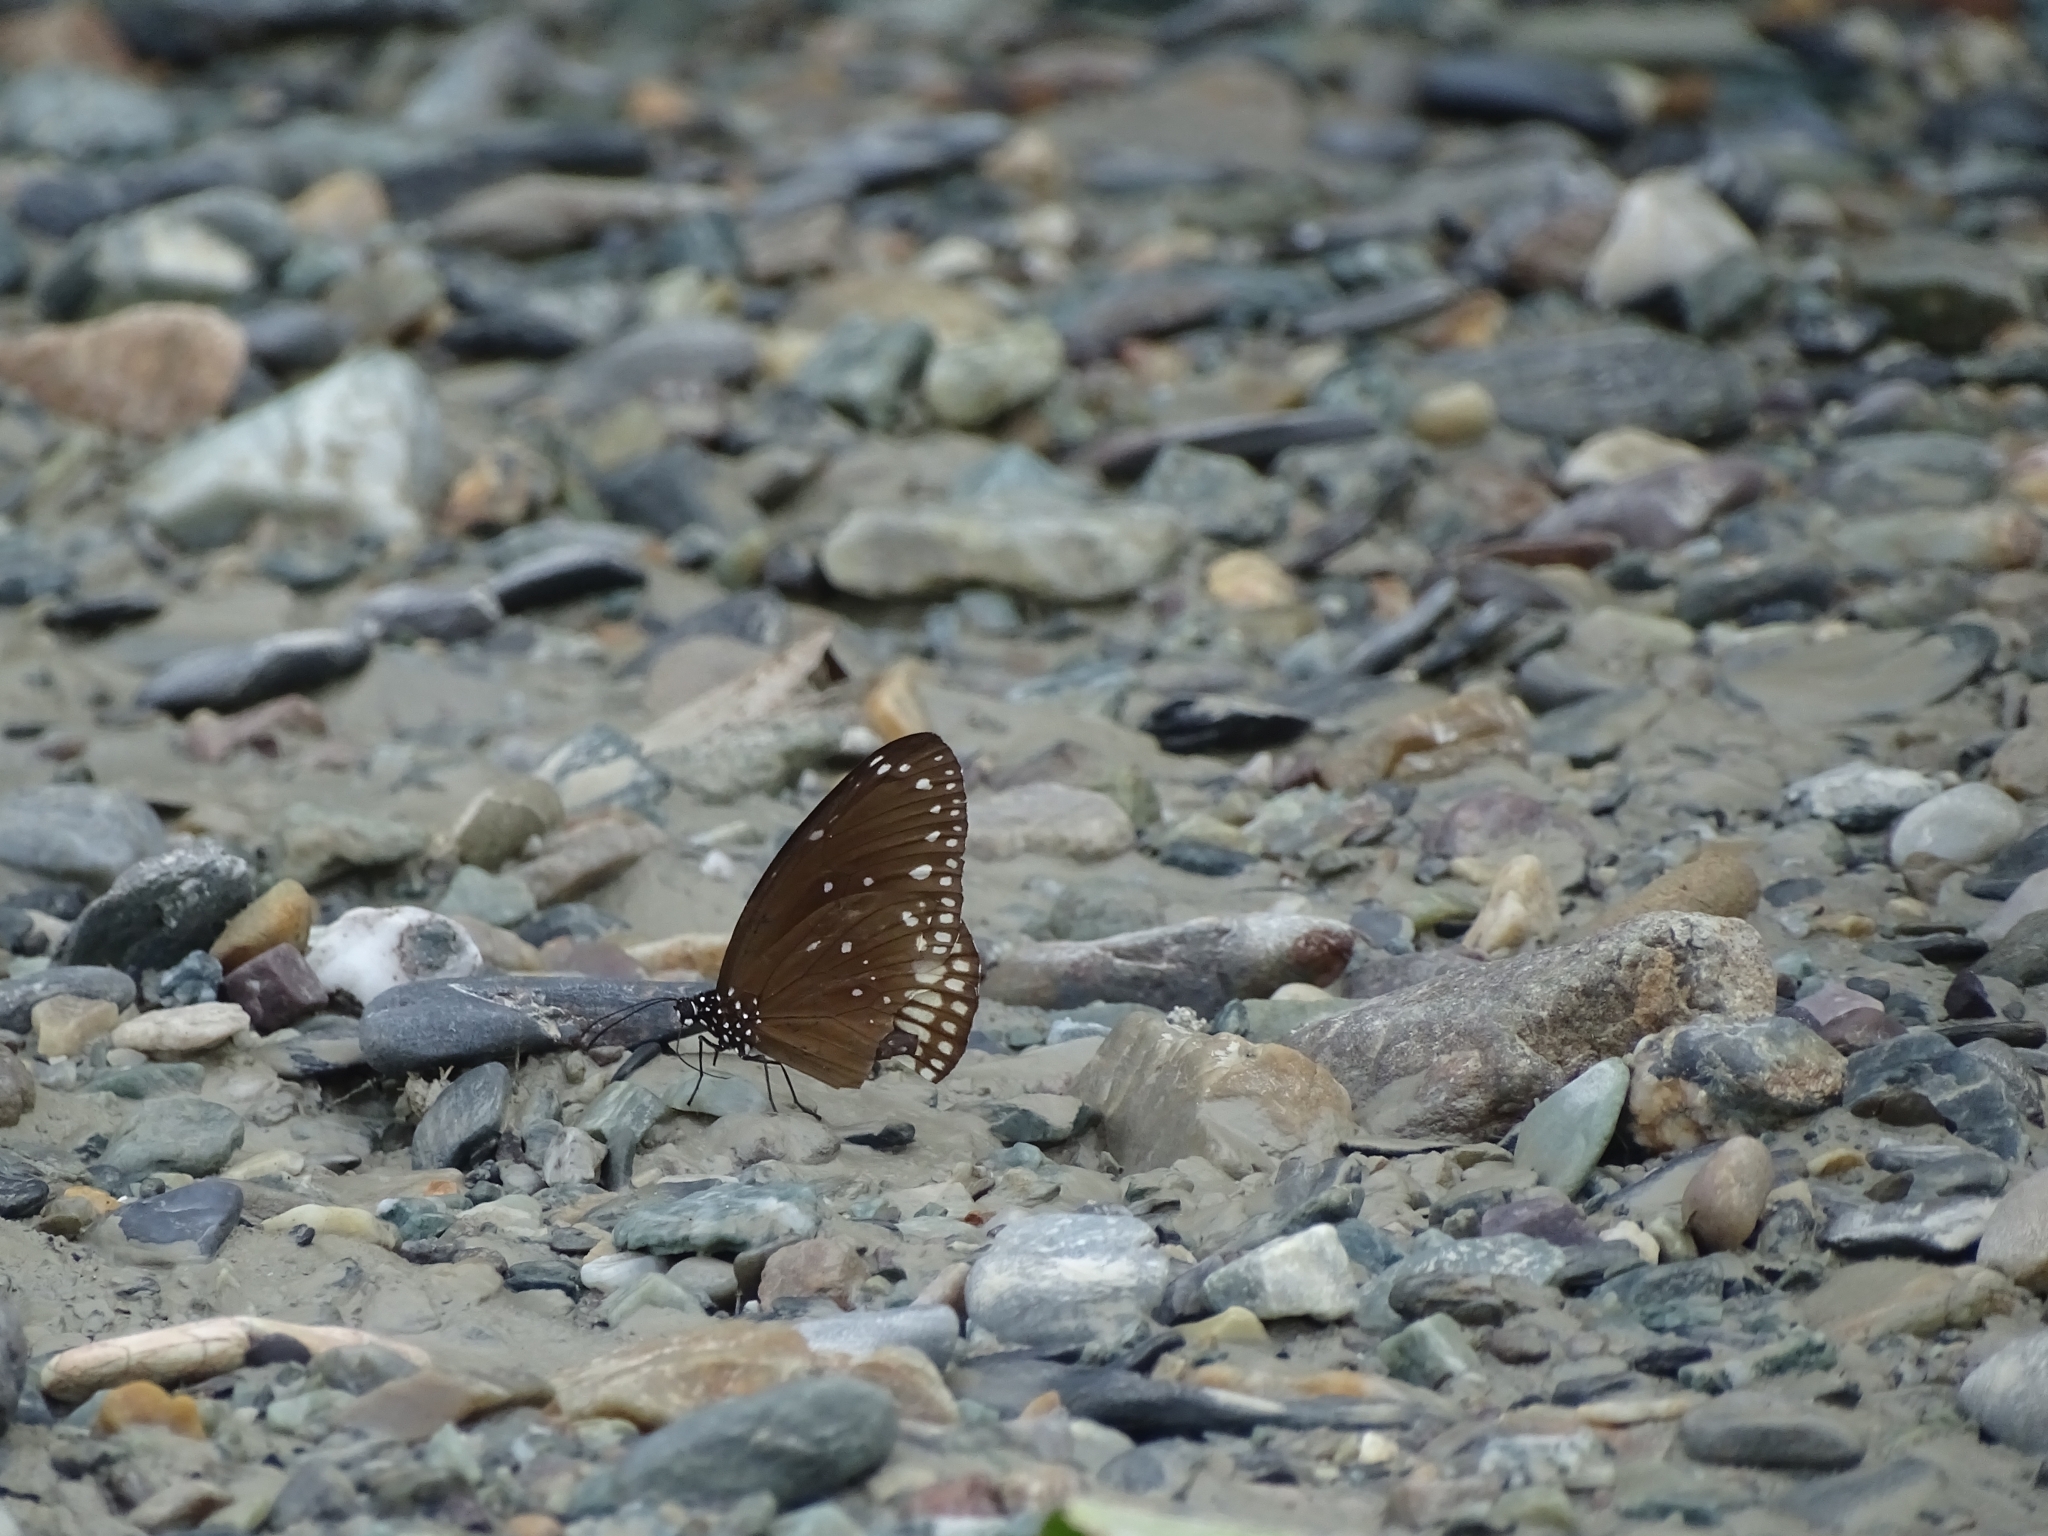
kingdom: Animalia
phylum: Arthropoda
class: Insecta
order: Lepidoptera
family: Nymphalidae
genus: Euploea
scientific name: Euploea core
